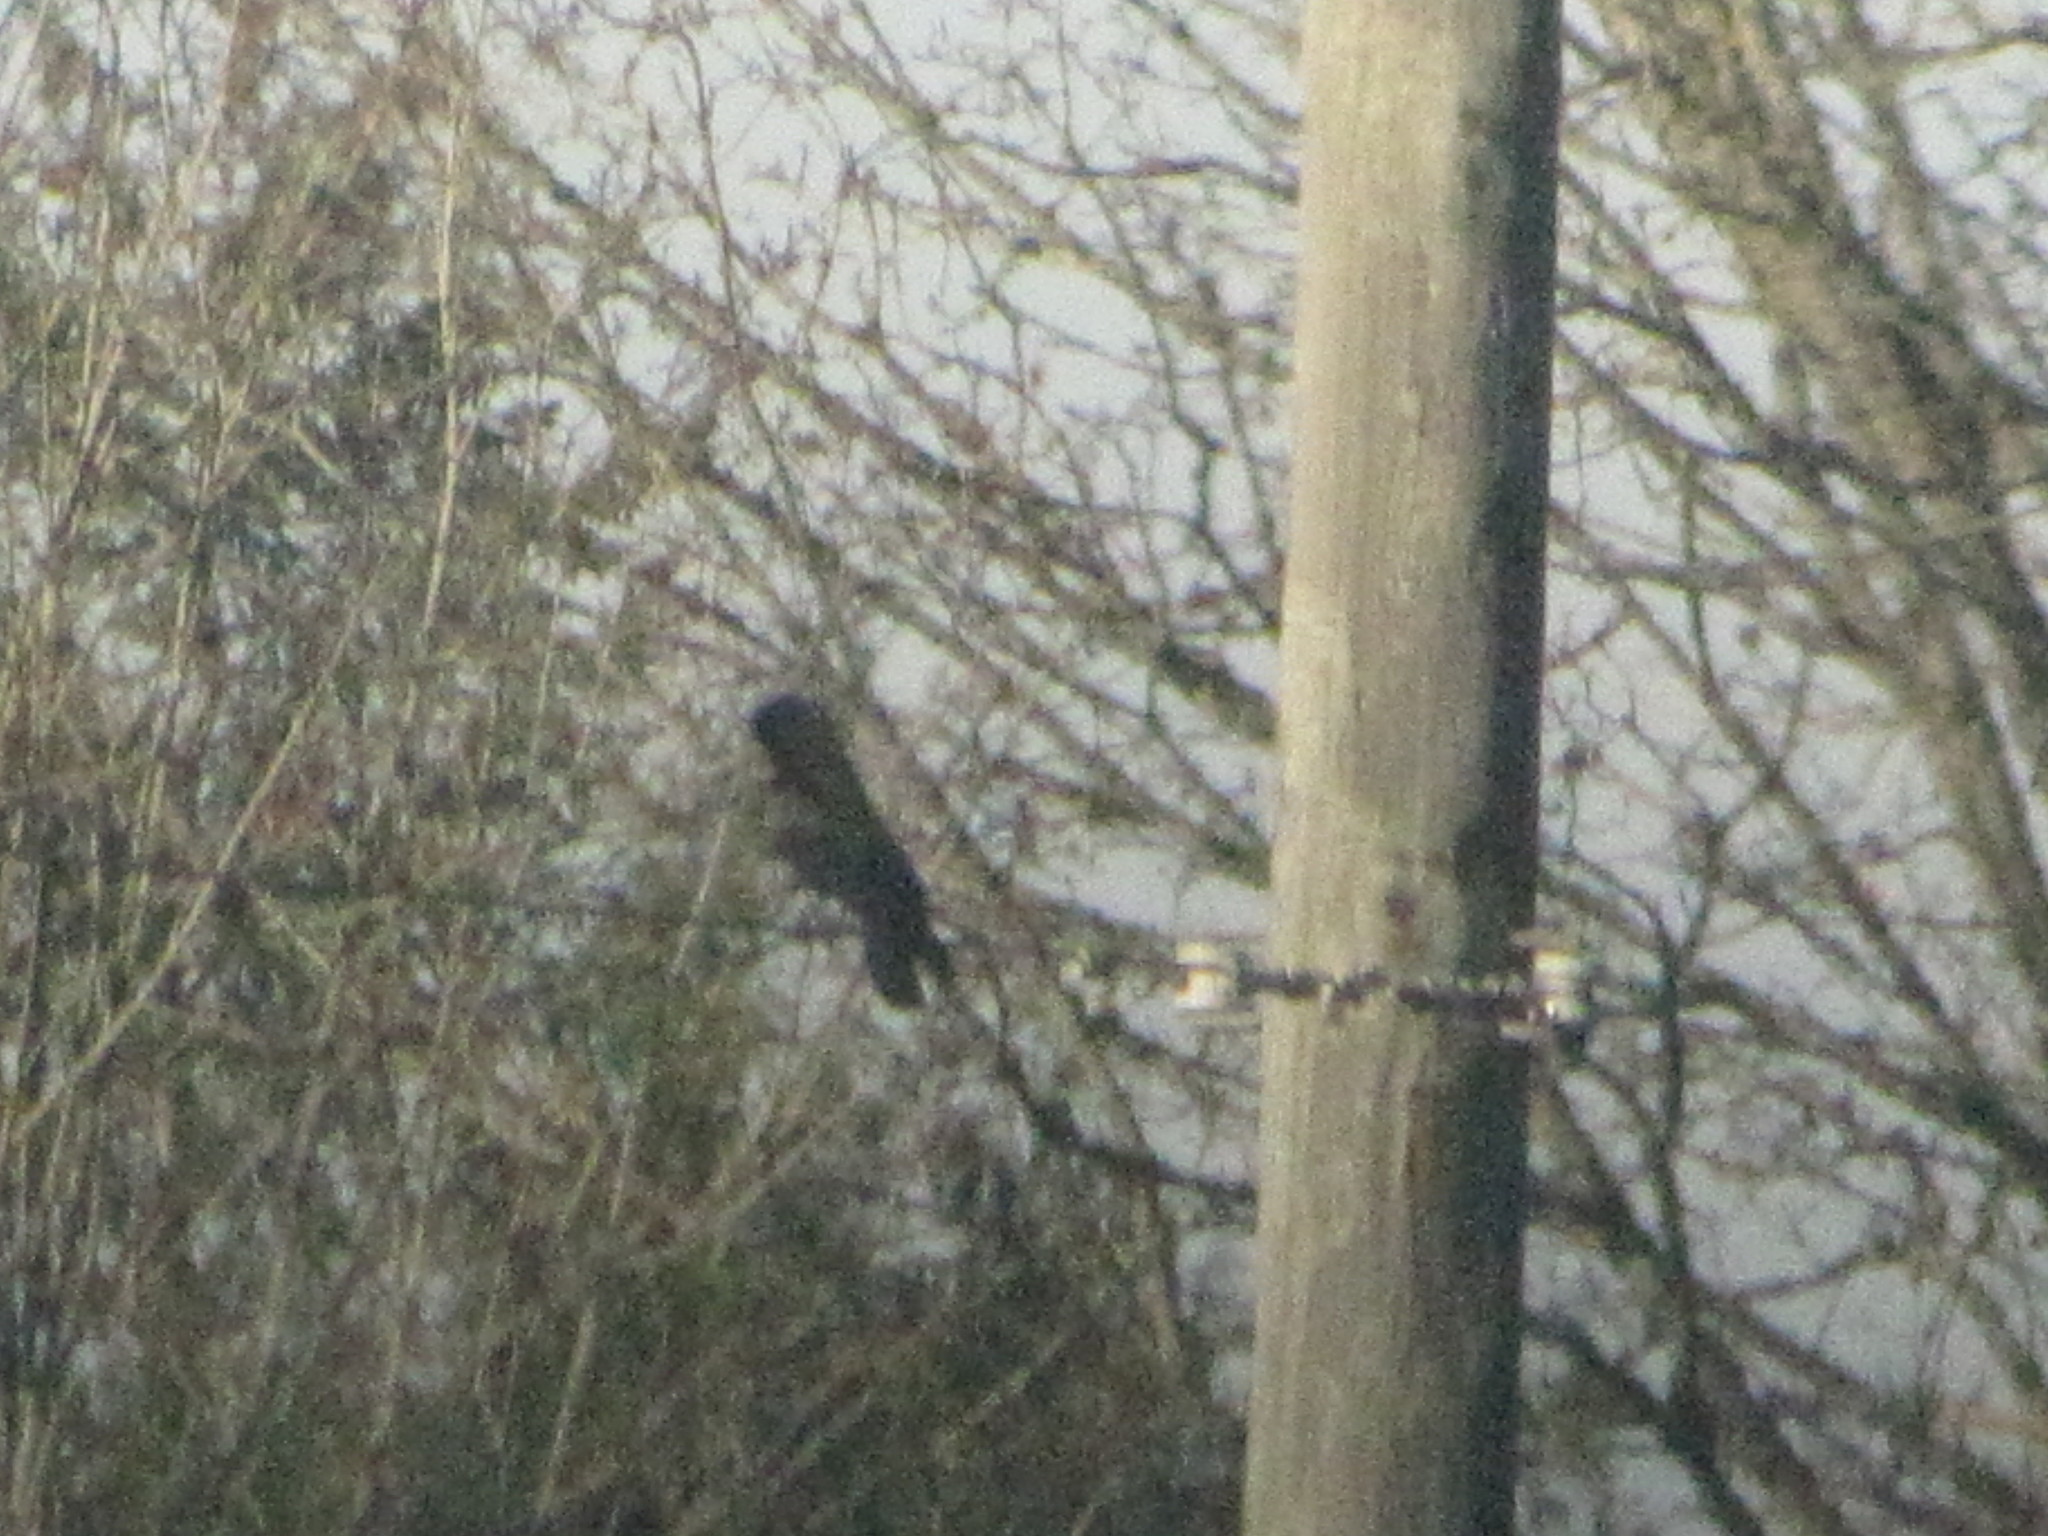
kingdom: Animalia
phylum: Chordata
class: Aves
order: Passeriformes
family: Corvidae
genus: Corvus
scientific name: Corvus brachyrhynchos
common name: American crow
